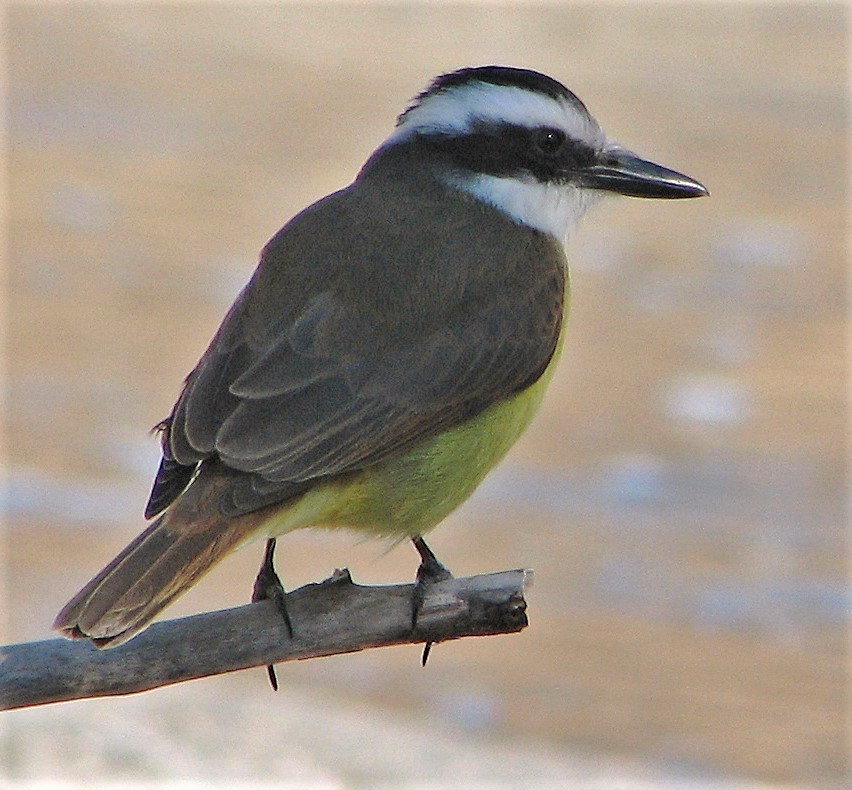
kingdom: Animalia
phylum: Chordata
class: Aves
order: Passeriformes
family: Tyrannidae
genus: Pitangus
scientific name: Pitangus sulphuratus
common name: Great kiskadee
